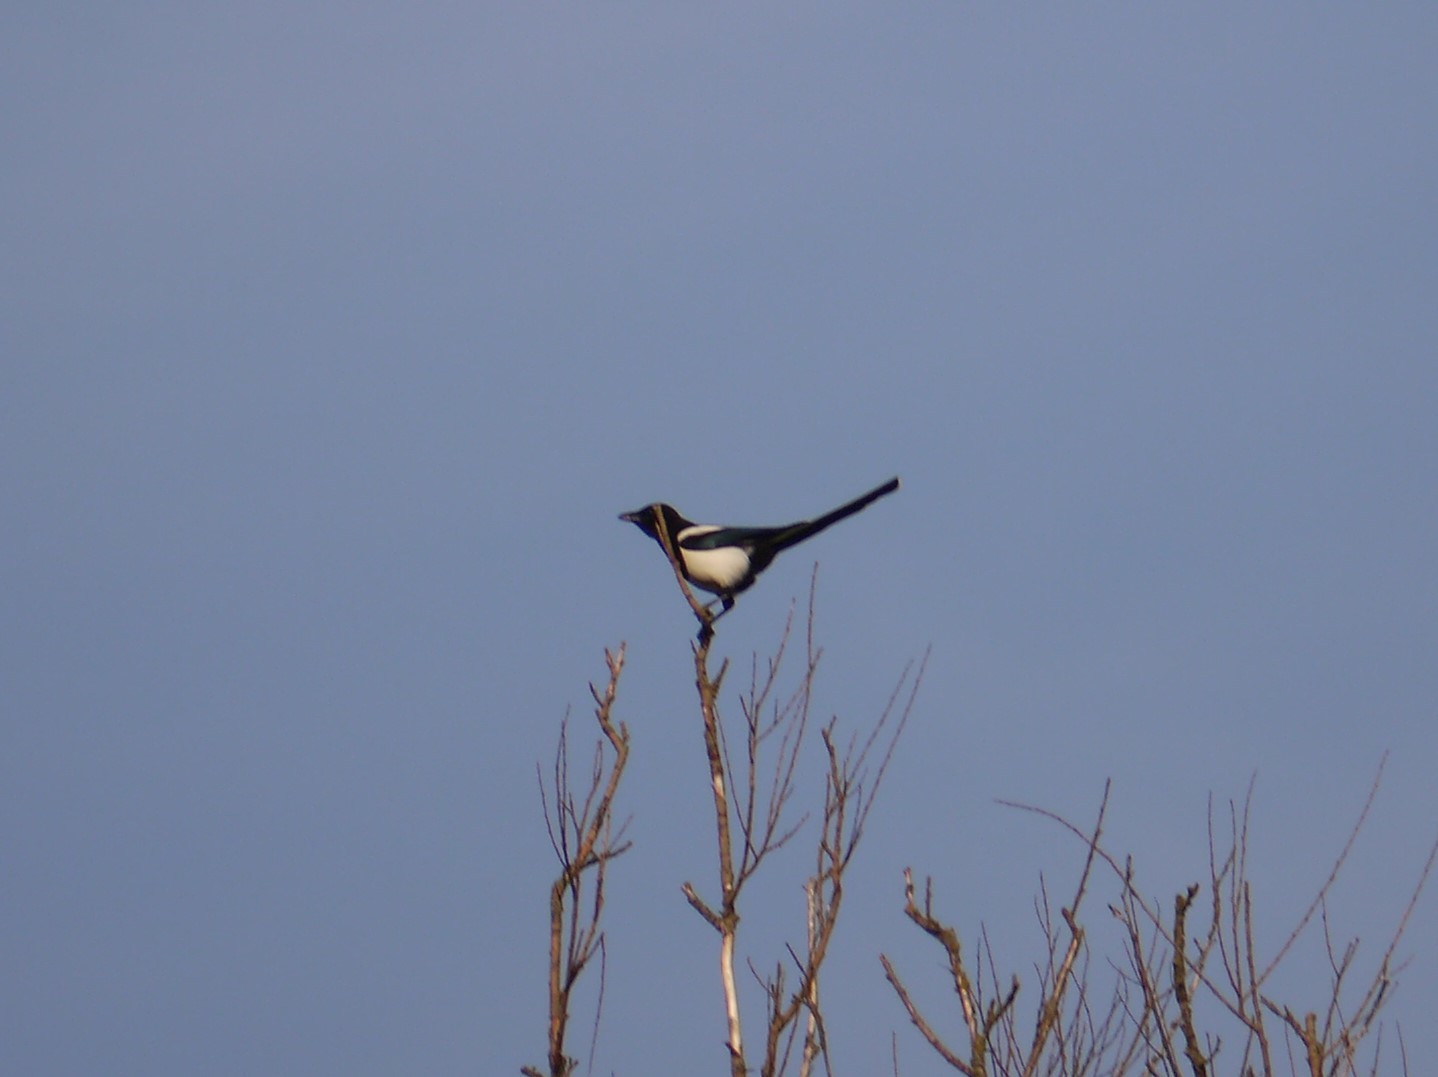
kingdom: Animalia
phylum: Chordata
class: Aves
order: Passeriformes
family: Corvidae
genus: Pica
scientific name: Pica pica
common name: Eurasian magpie
